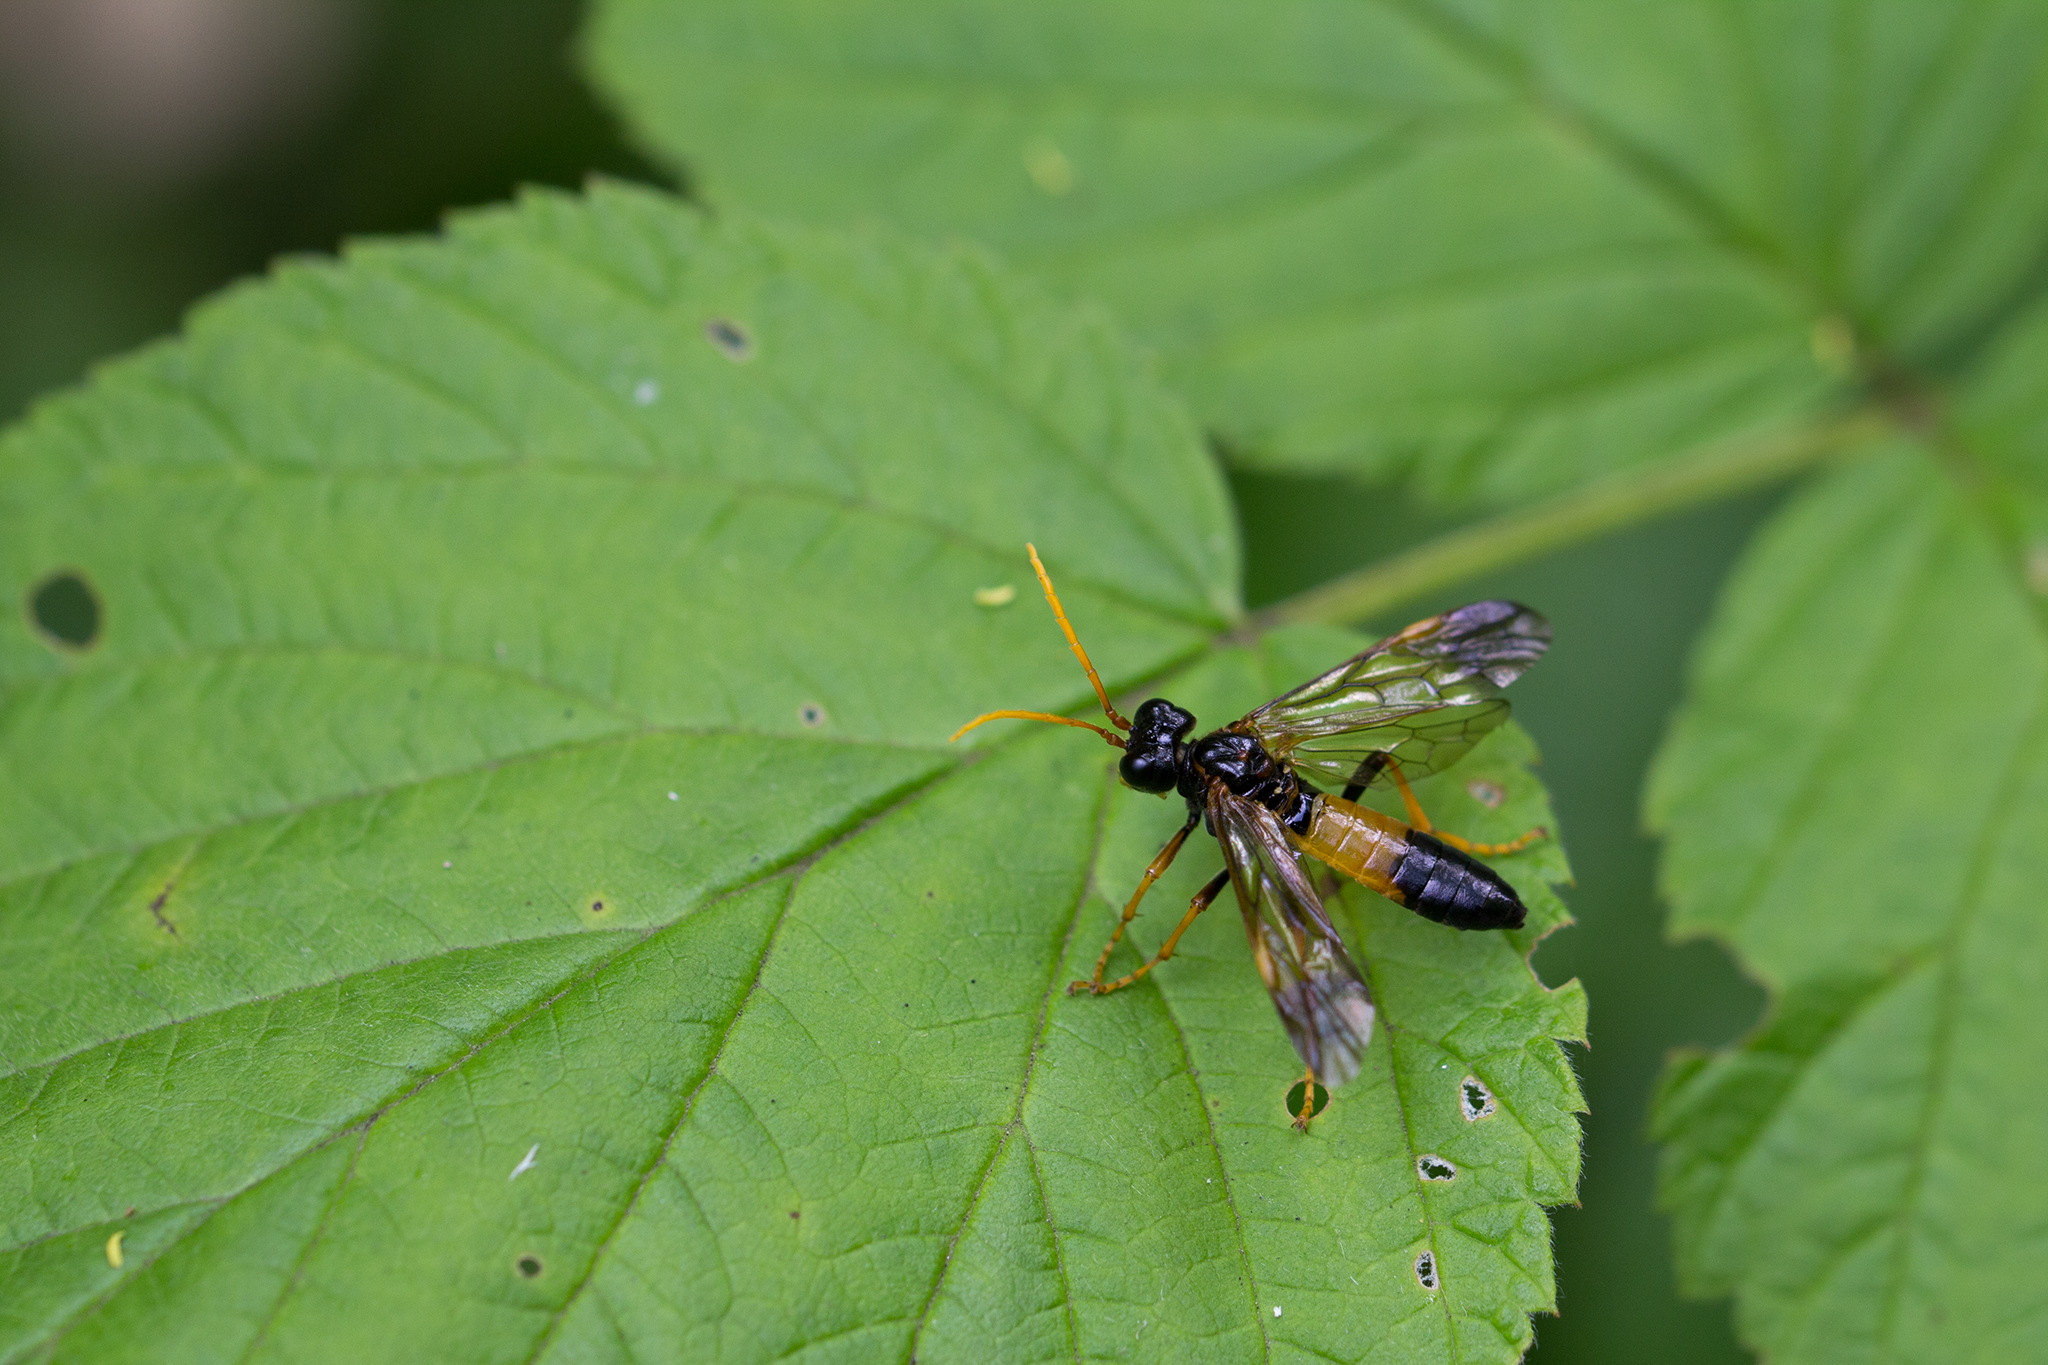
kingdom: Animalia
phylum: Arthropoda
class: Insecta
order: Hymenoptera
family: Tenthredinidae
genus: Tenthredo
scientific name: Tenthredo campestris
